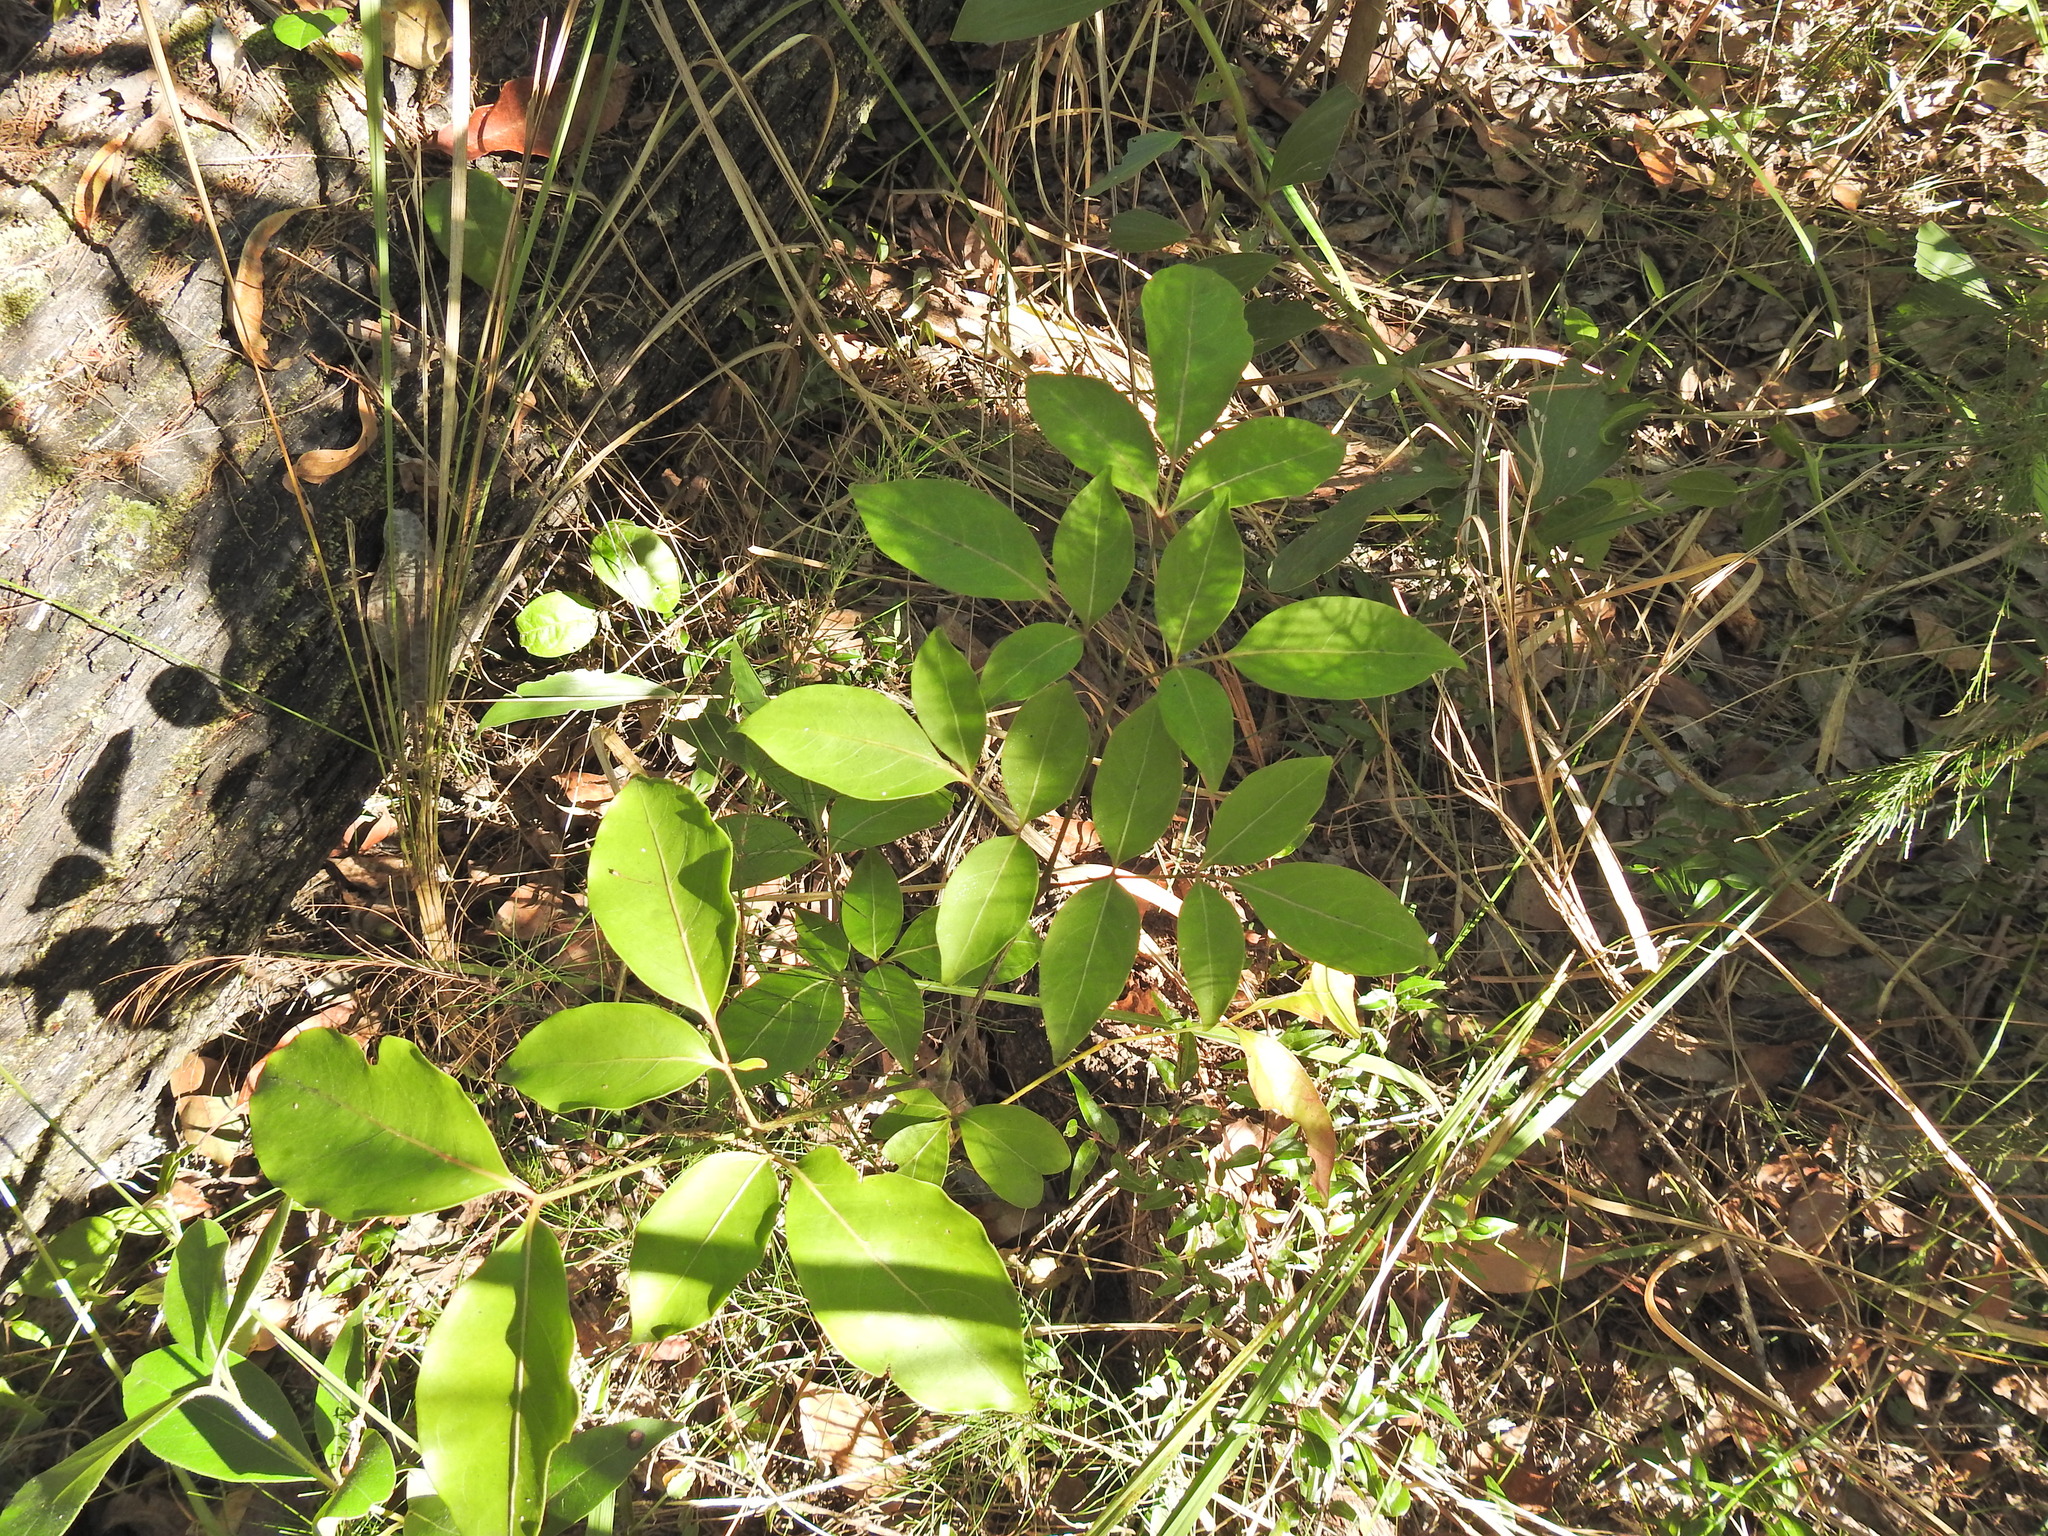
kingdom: Plantae
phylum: Tracheophyta
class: Magnoliopsida
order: Apiales
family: Araliaceae
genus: Polyscias
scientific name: Polyscias elegans
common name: Mowbulan whitewood
